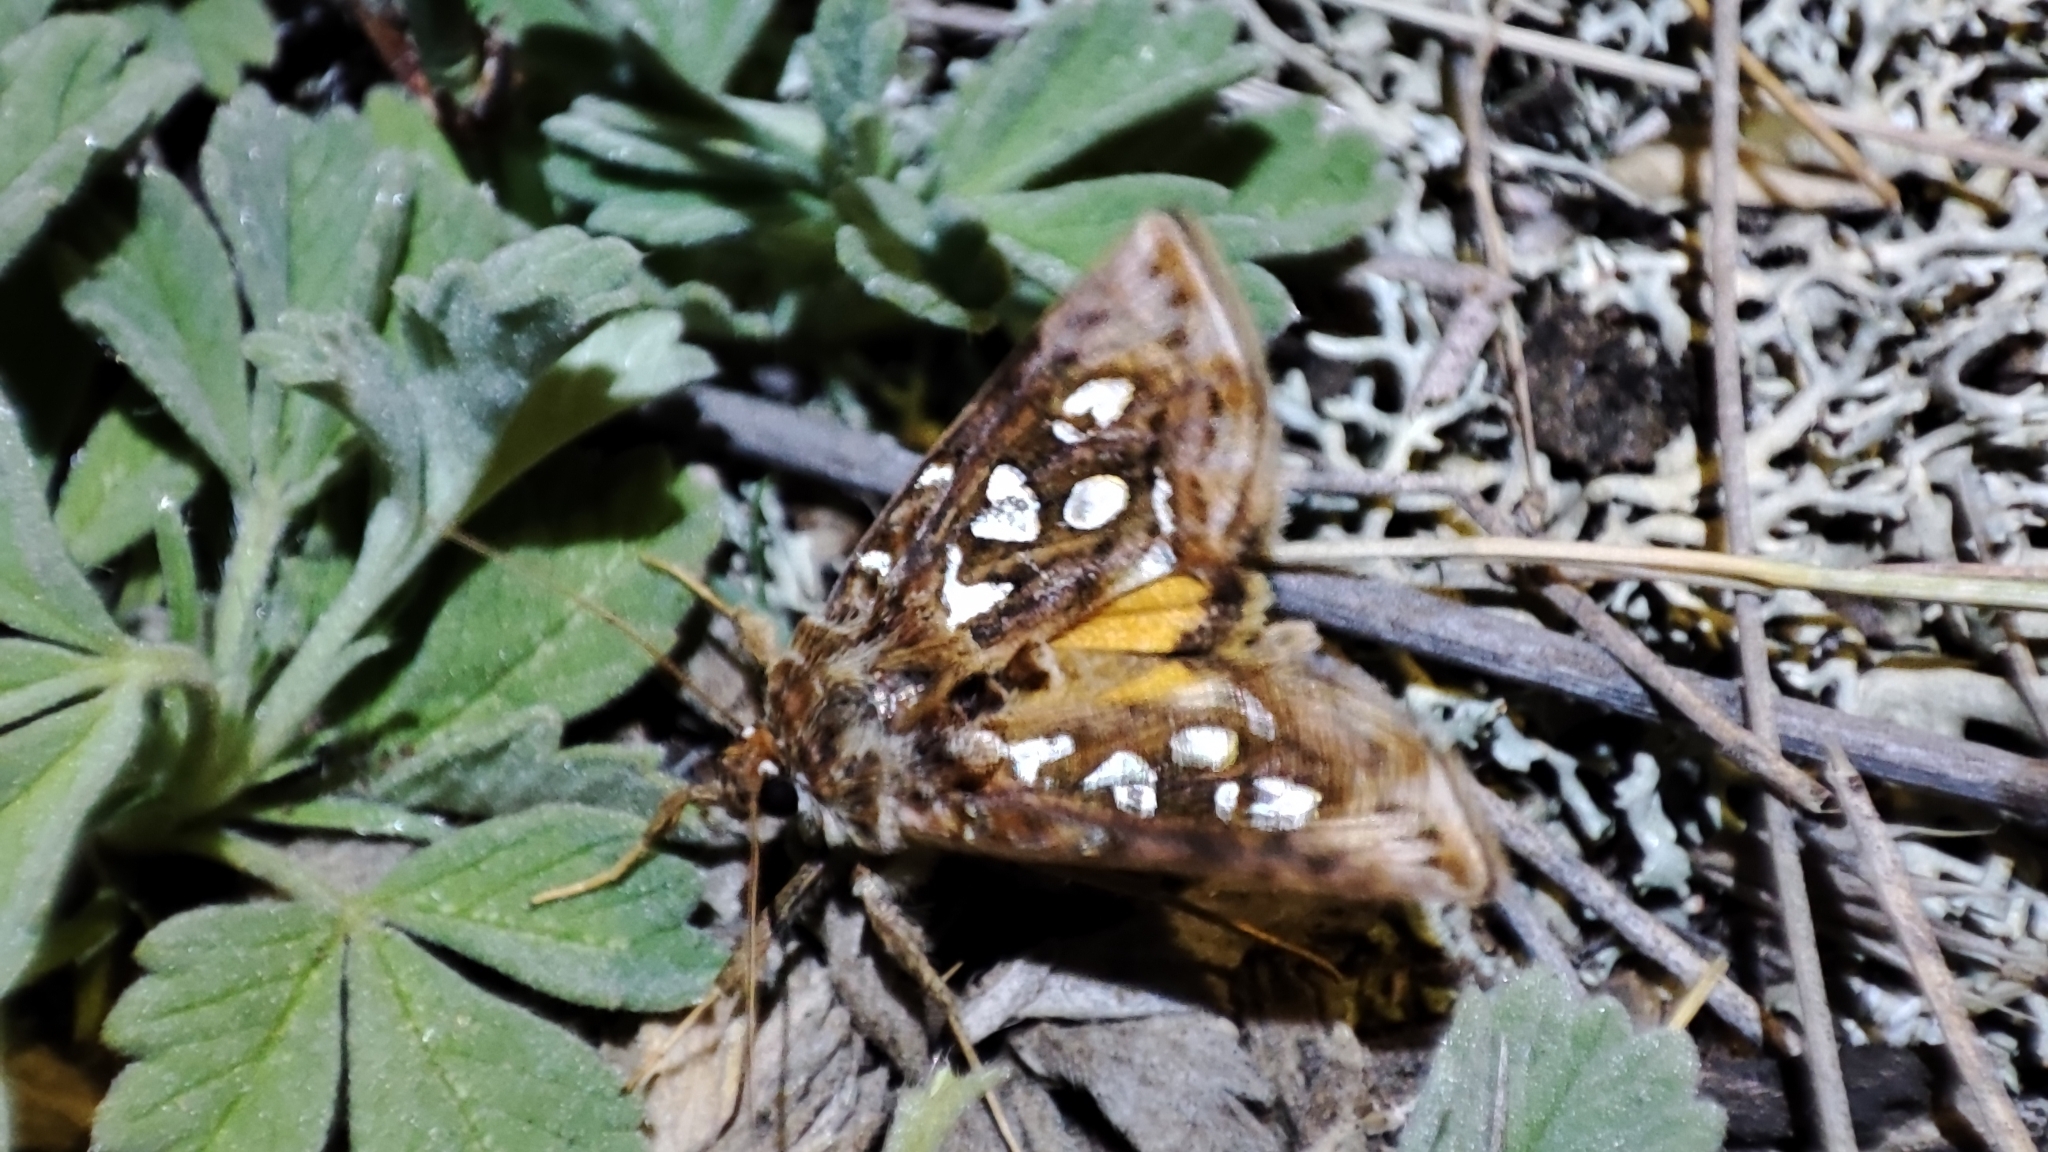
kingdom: Animalia
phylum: Arthropoda
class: Insecta
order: Lepidoptera
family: Noctuidae
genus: Panchrysia
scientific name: Panchrysia dives
